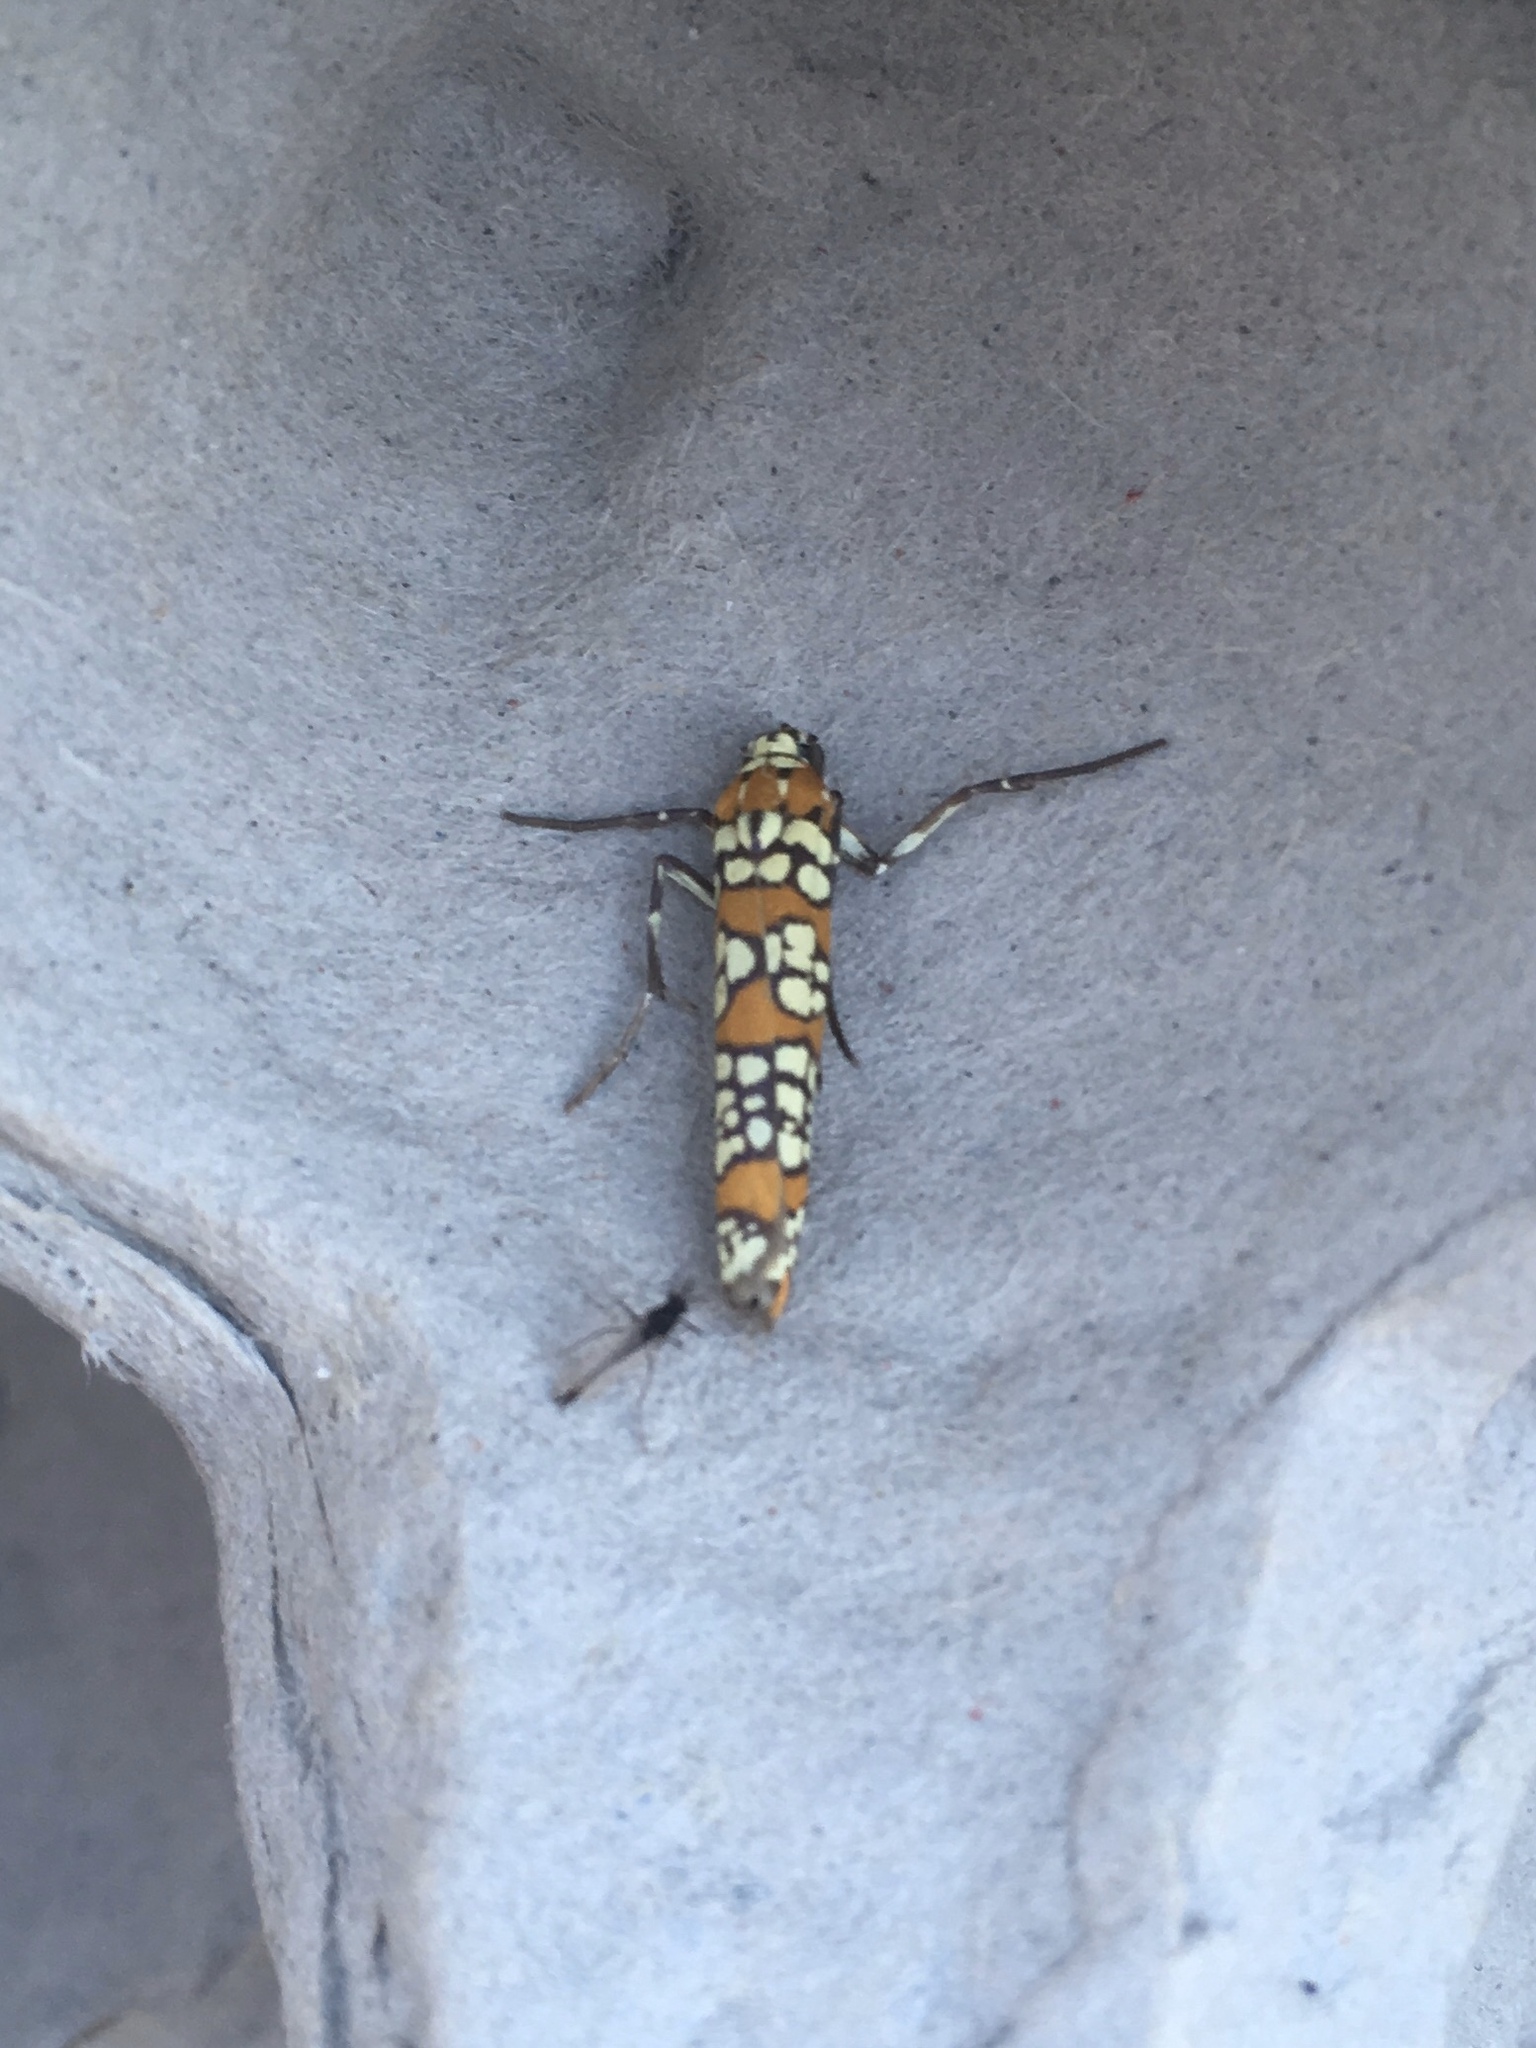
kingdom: Animalia
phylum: Arthropoda
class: Insecta
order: Lepidoptera
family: Attevidae
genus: Atteva
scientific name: Atteva punctella
